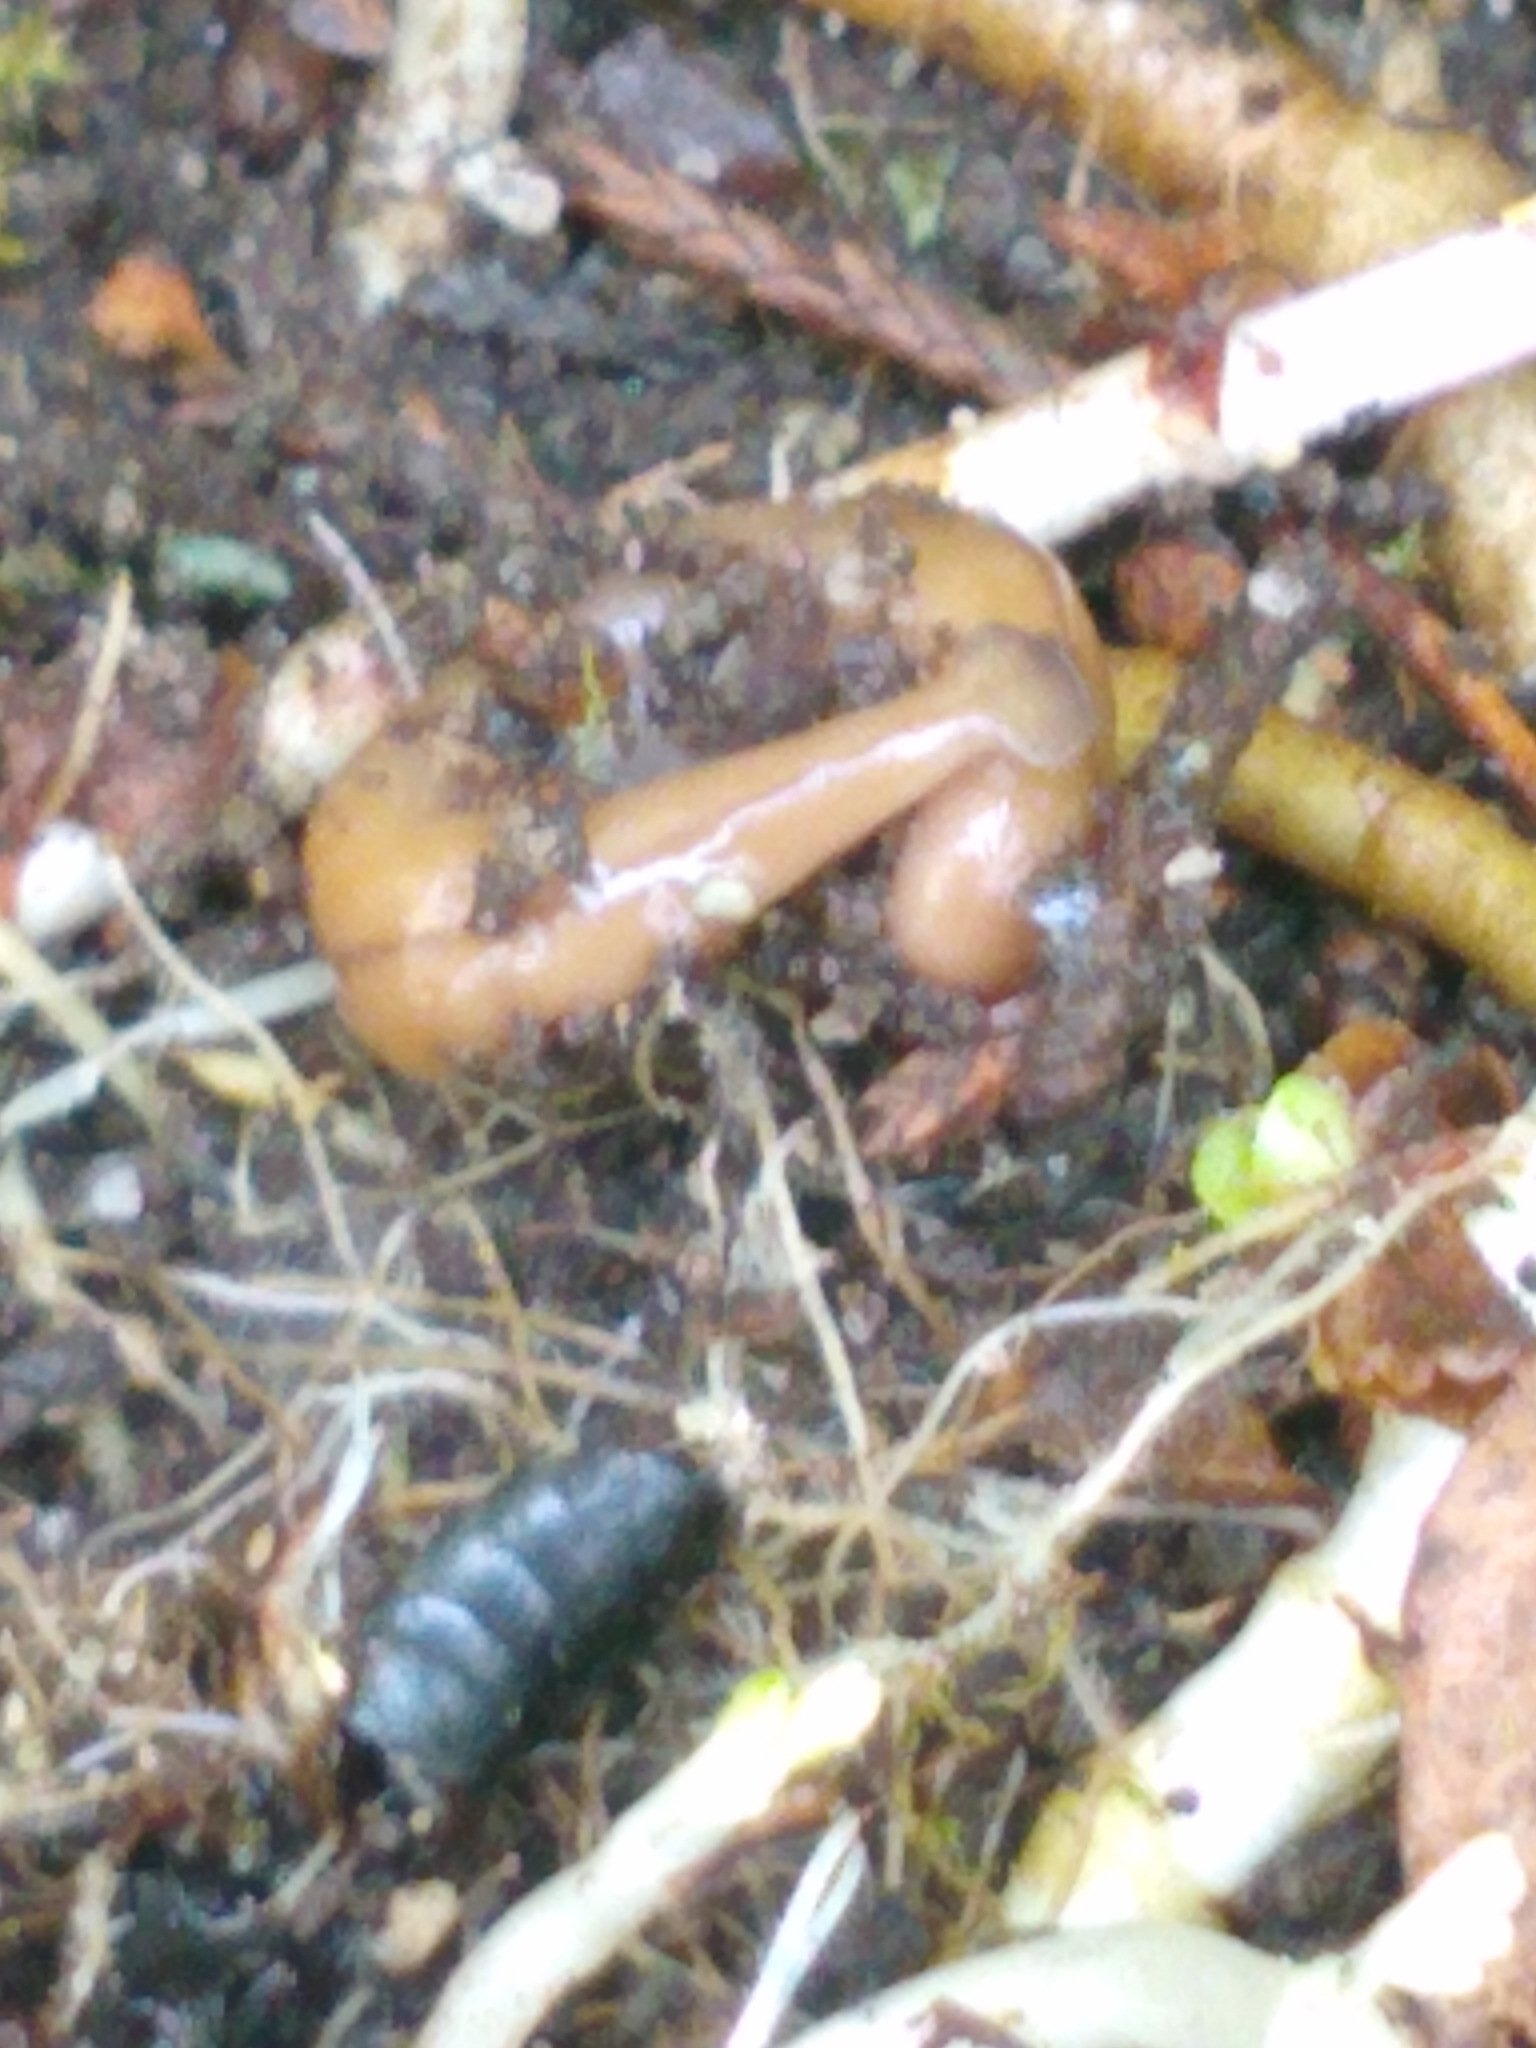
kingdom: Animalia
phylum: Platyhelminthes
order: Tricladida
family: Geoplanidae
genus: Bipalium
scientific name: Bipalium adventitium
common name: Land planarian
